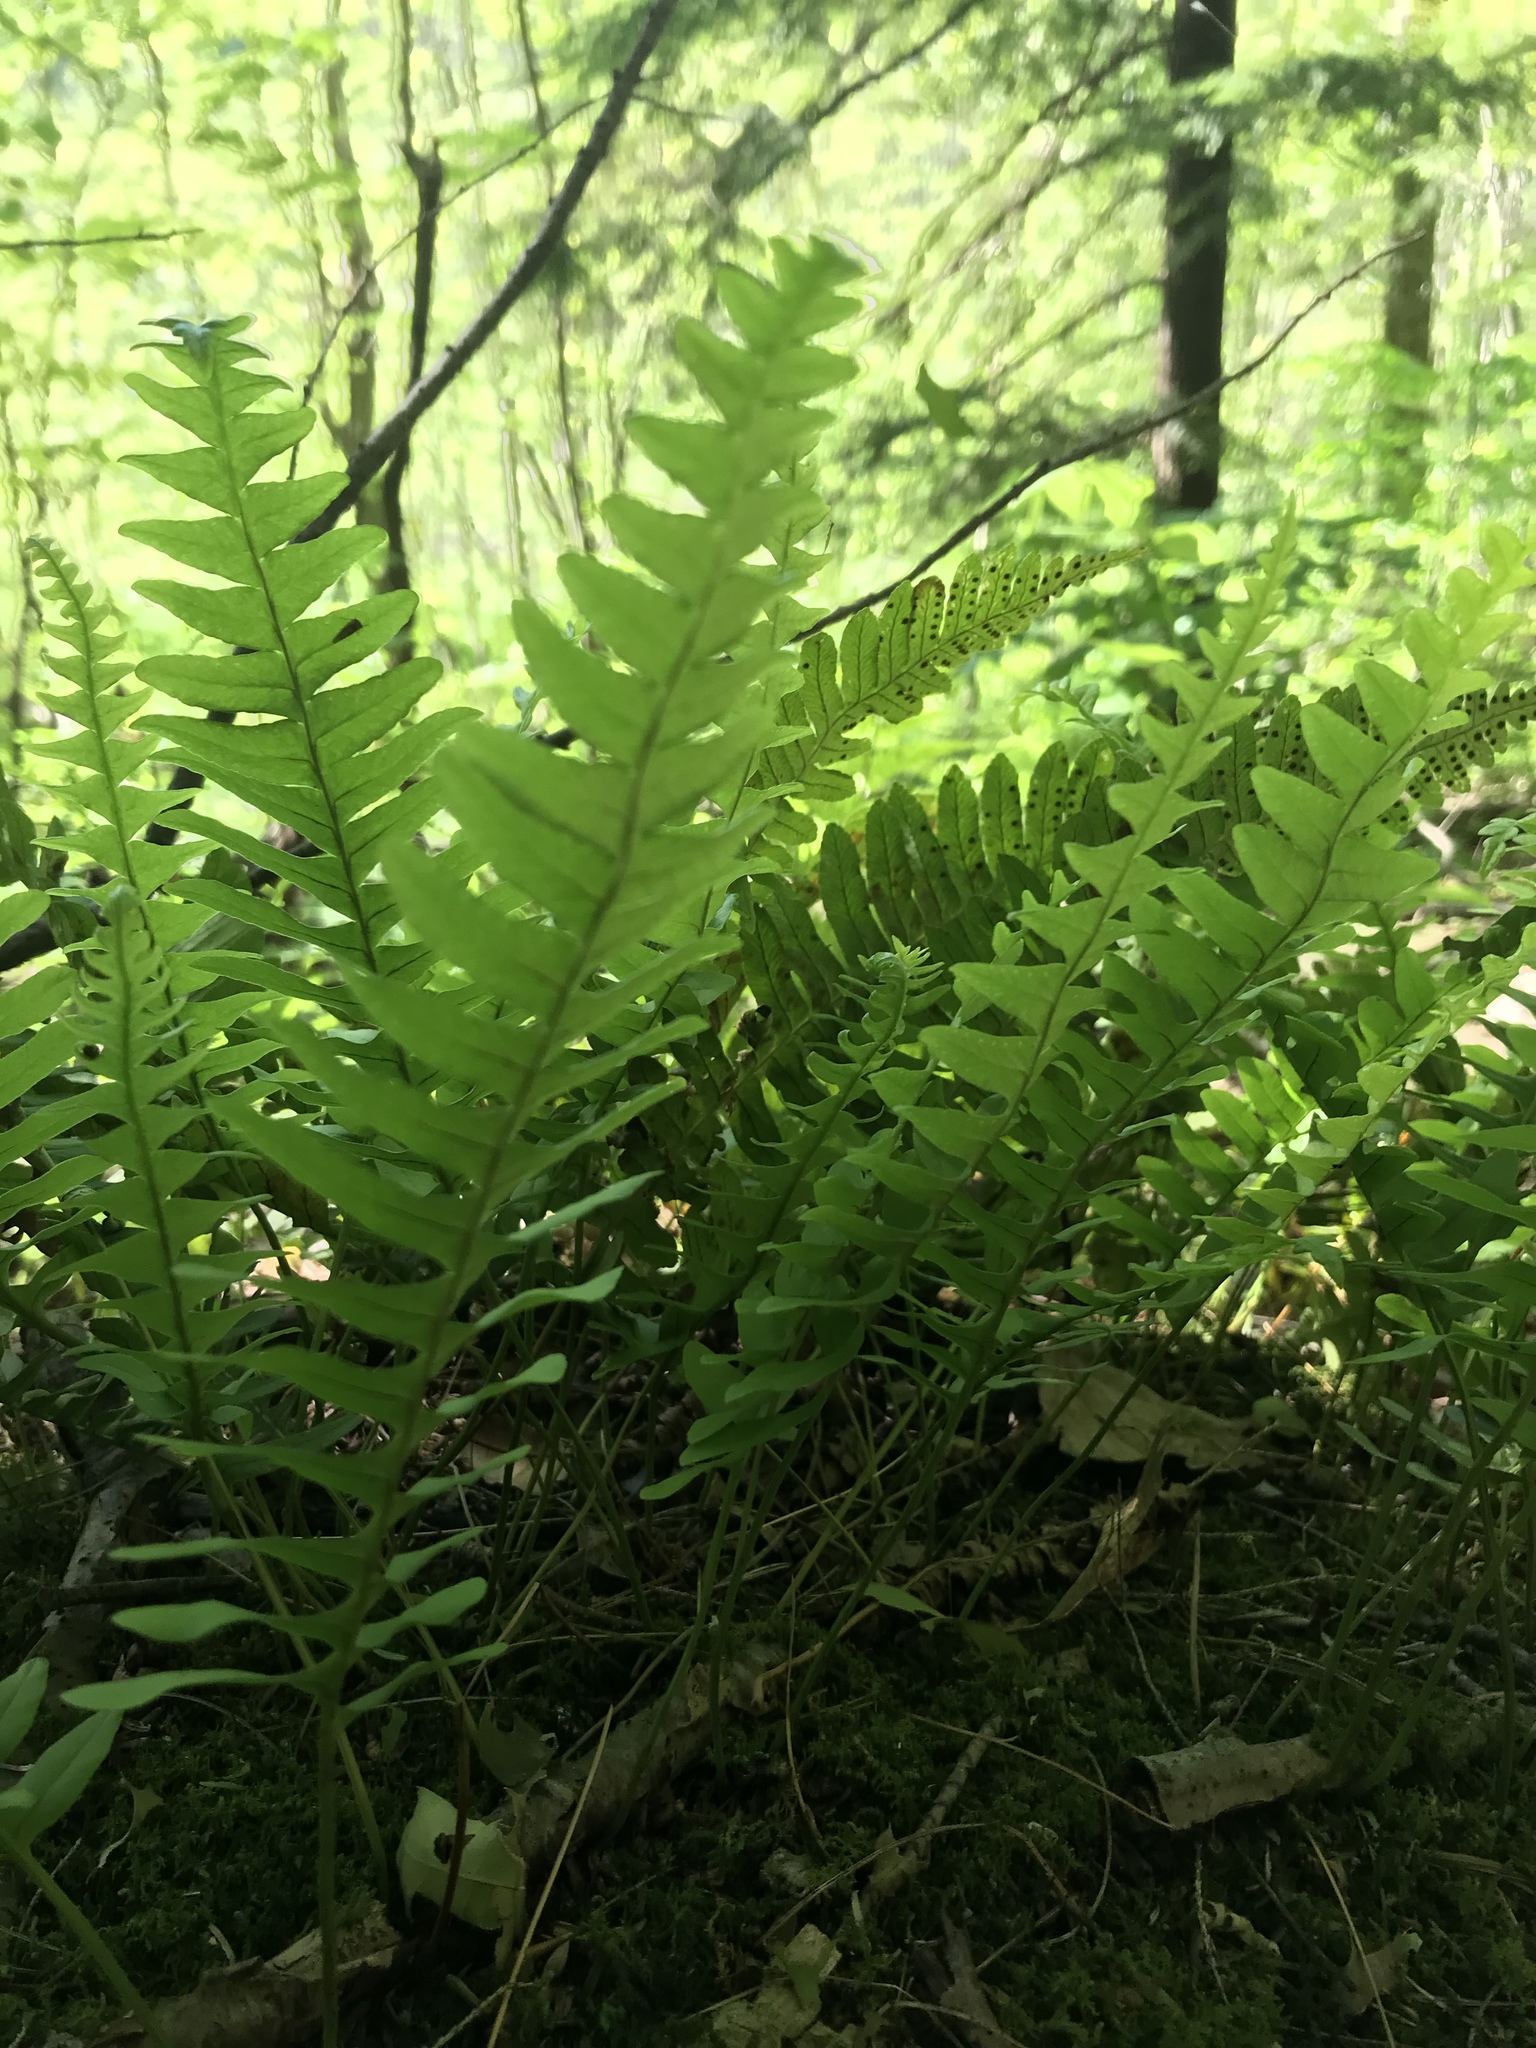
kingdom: Plantae
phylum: Tracheophyta
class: Polypodiopsida
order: Polypodiales
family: Polypodiaceae
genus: Polypodium
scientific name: Polypodium virginianum
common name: American wall fern
